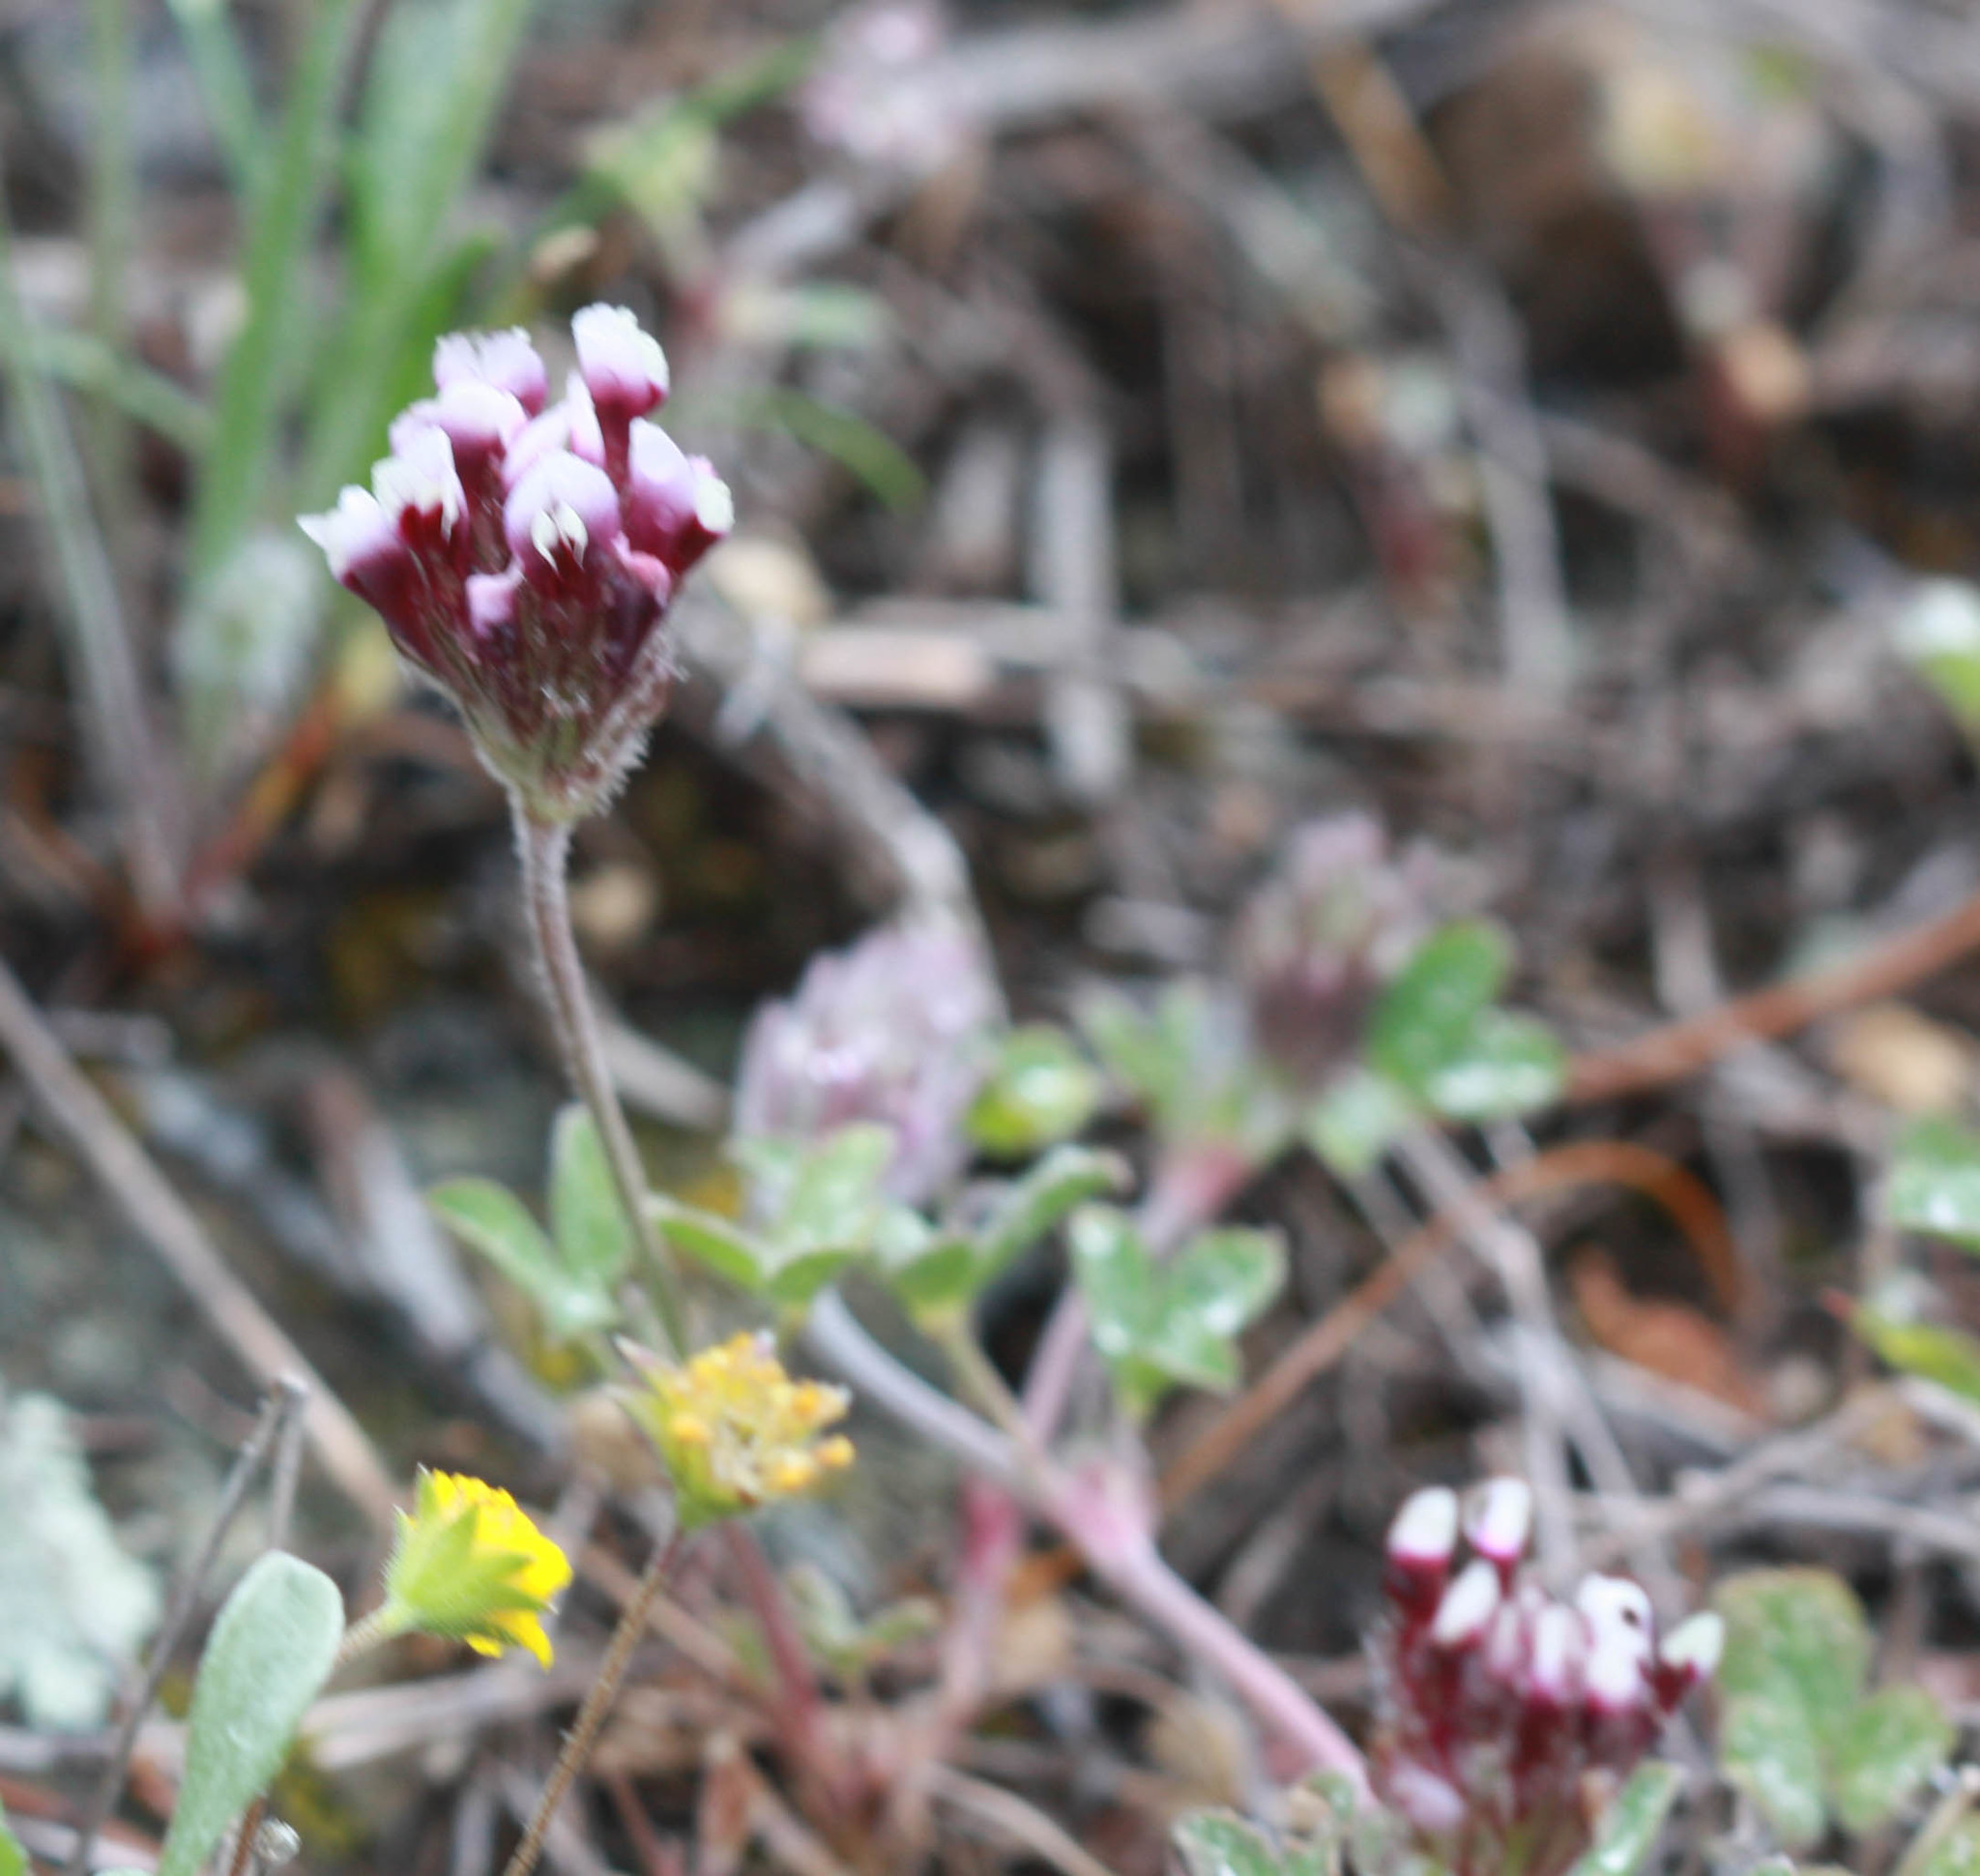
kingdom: Plantae
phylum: Tracheophyta
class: Magnoliopsida
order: Fabales
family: Fabaceae
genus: Trifolium
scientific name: Trifolium dichotomum
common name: Branched indian clover
